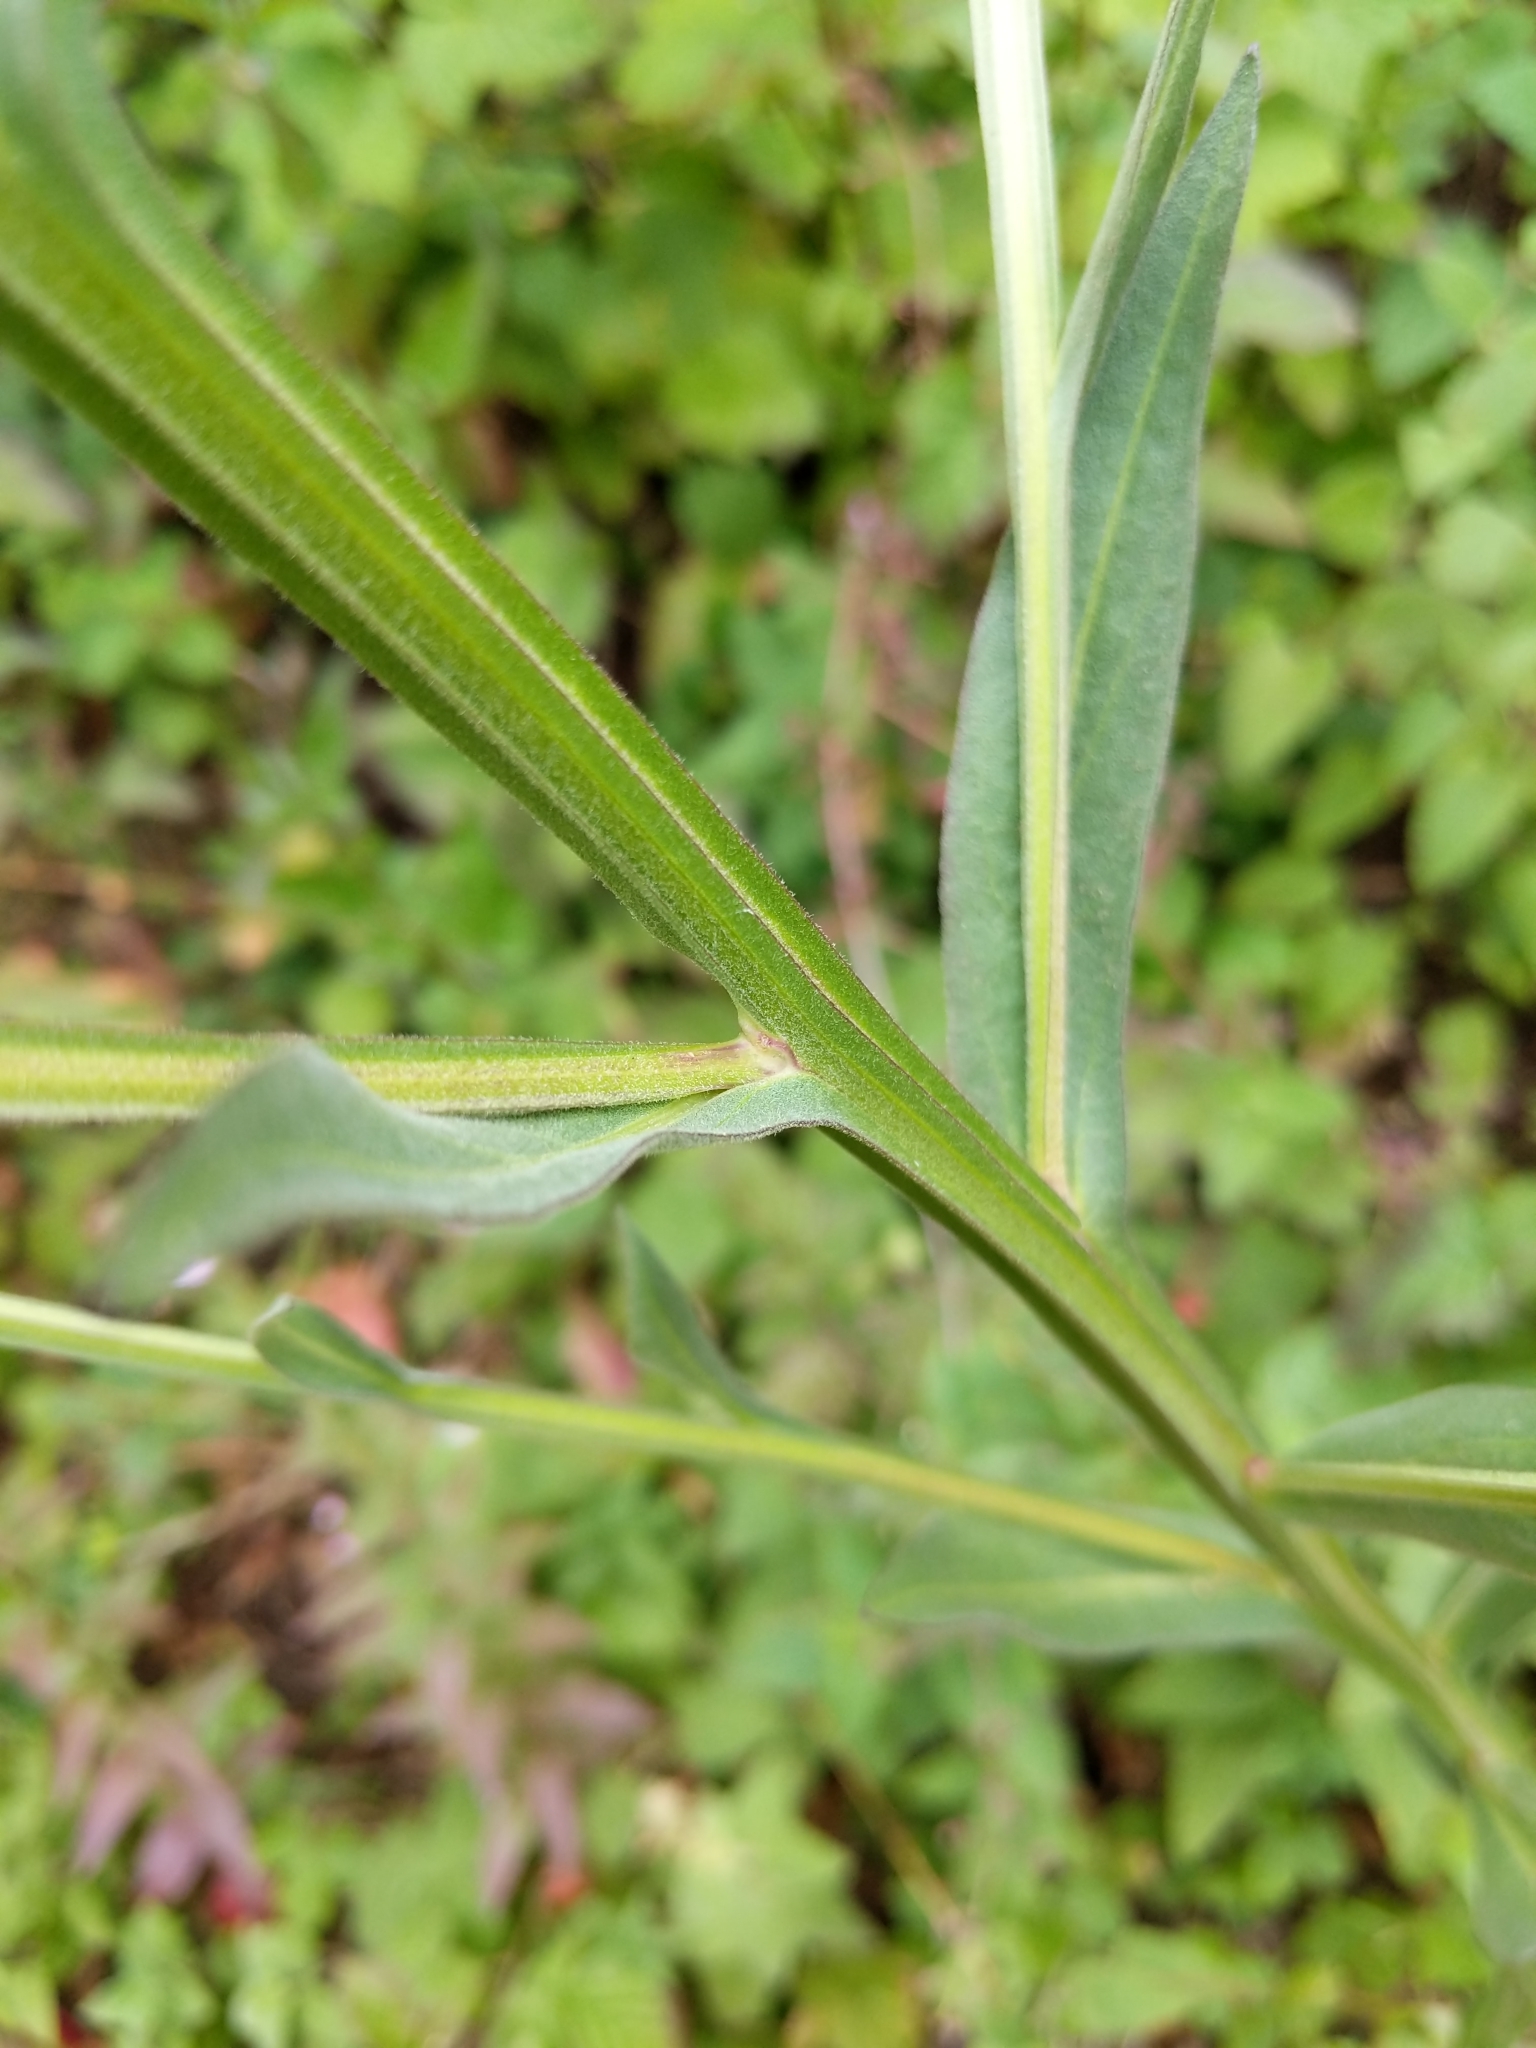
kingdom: Plantae
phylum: Tracheophyta
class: Magnoliopsida
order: Asterales
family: Asteraceae
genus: Helenium
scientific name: Helenium puberulum
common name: Sneezewort
